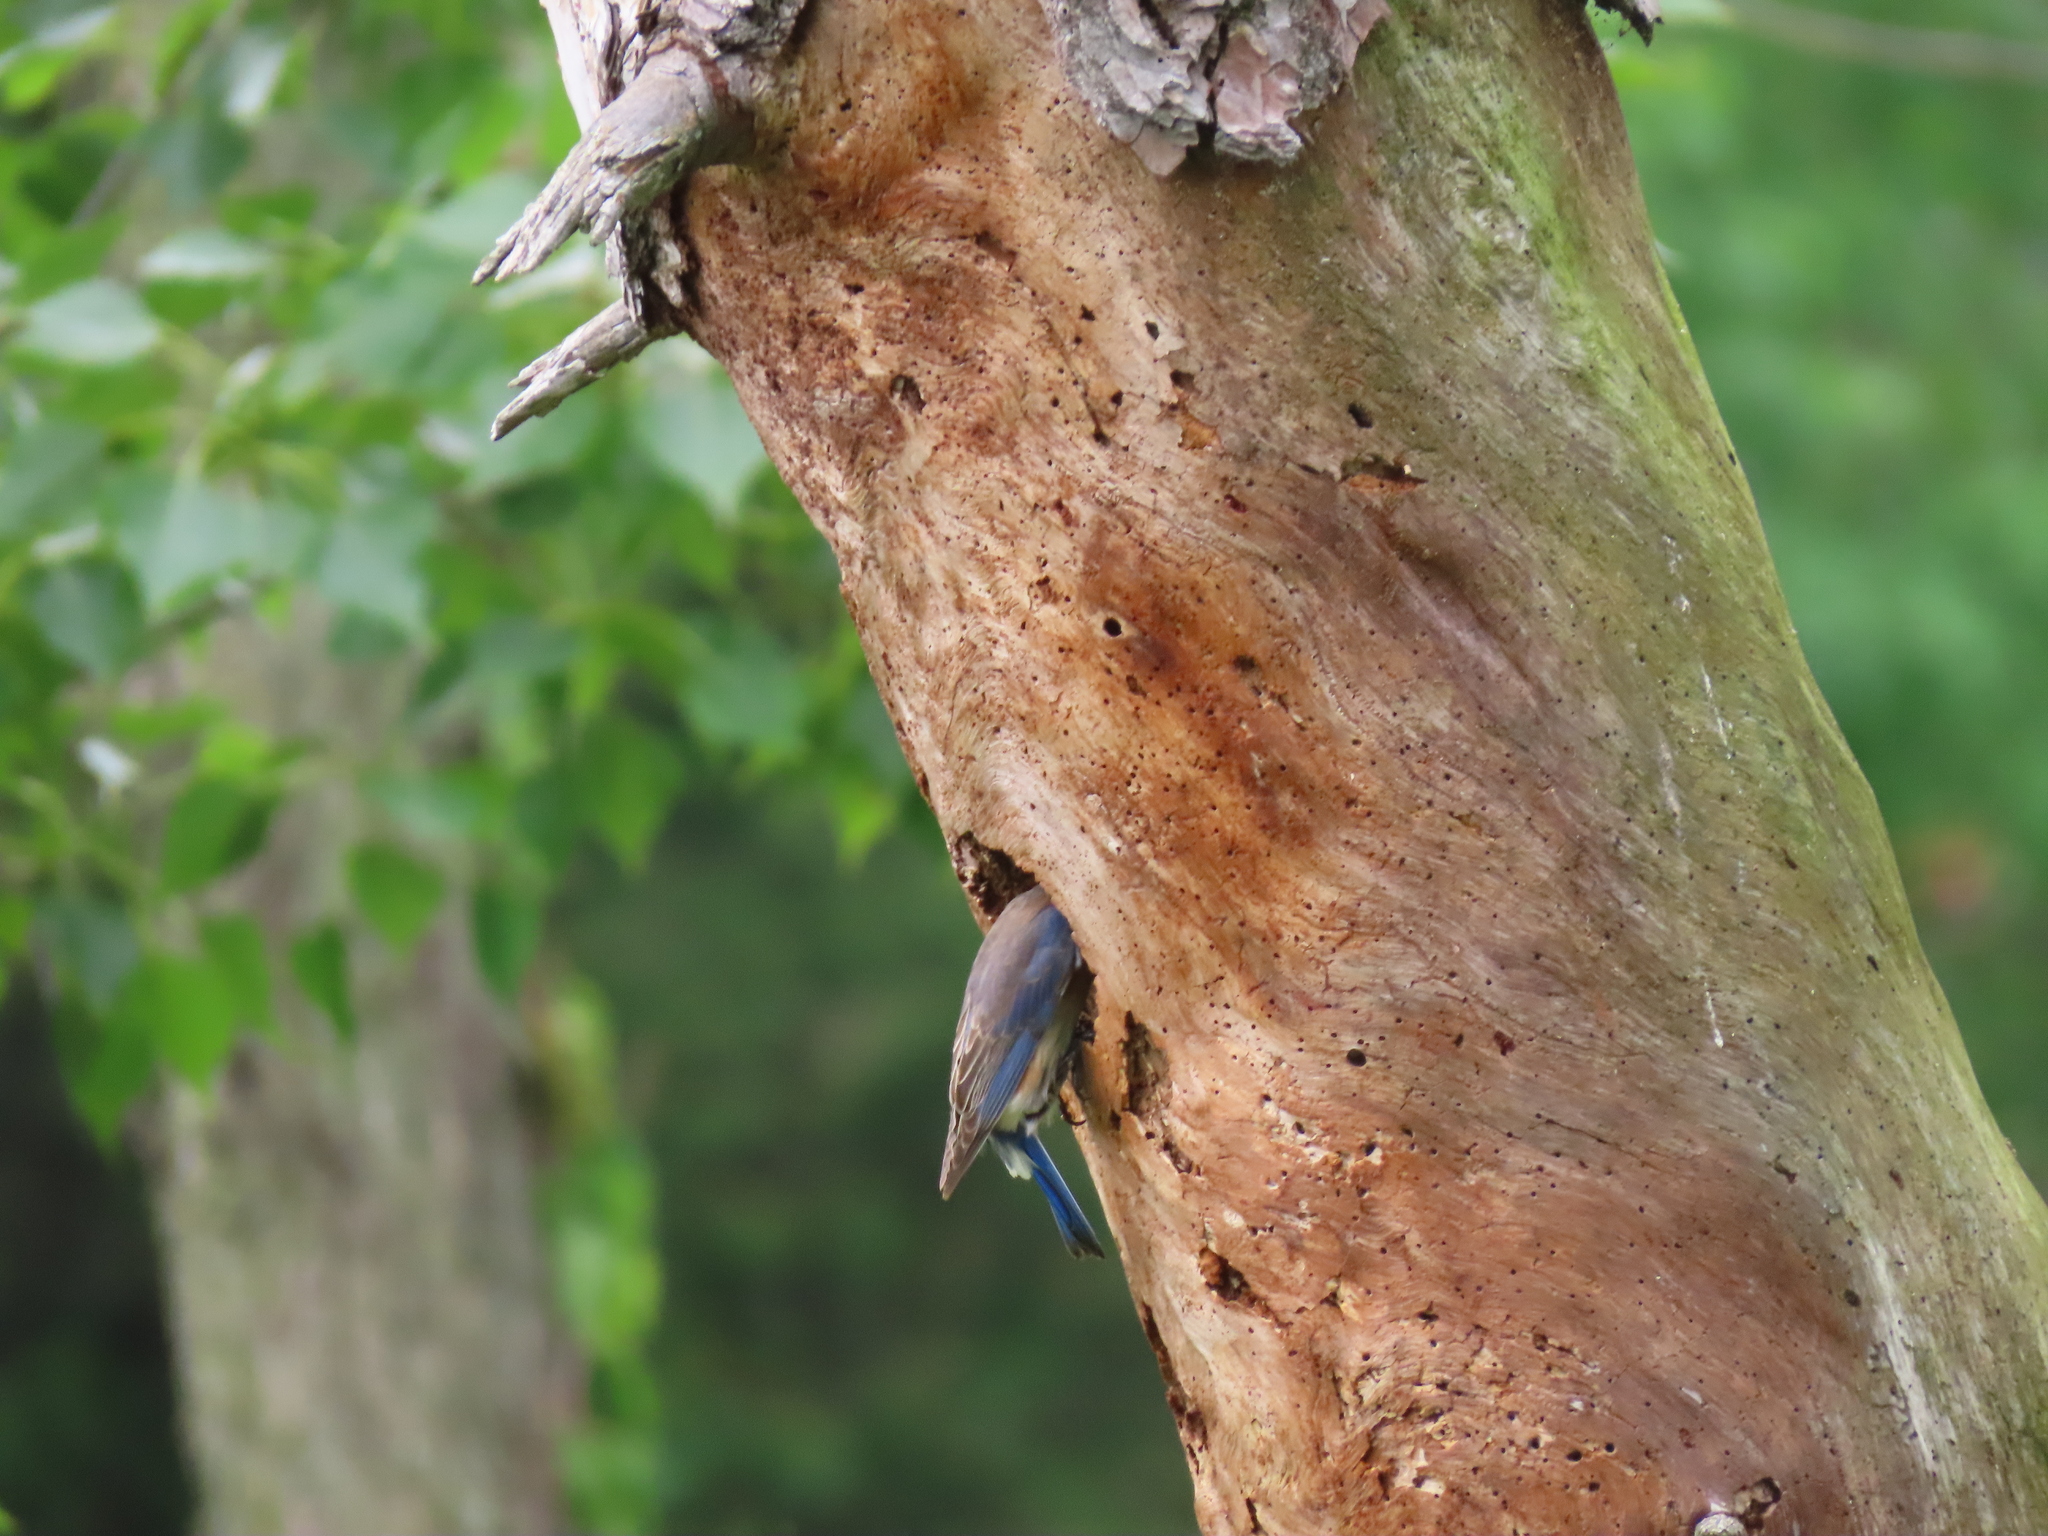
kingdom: Animalia
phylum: Chordata
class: Aves
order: Passeriformes
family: Turdidae
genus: Sialia
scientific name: Sialia sialis
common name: Eastern bluebird
